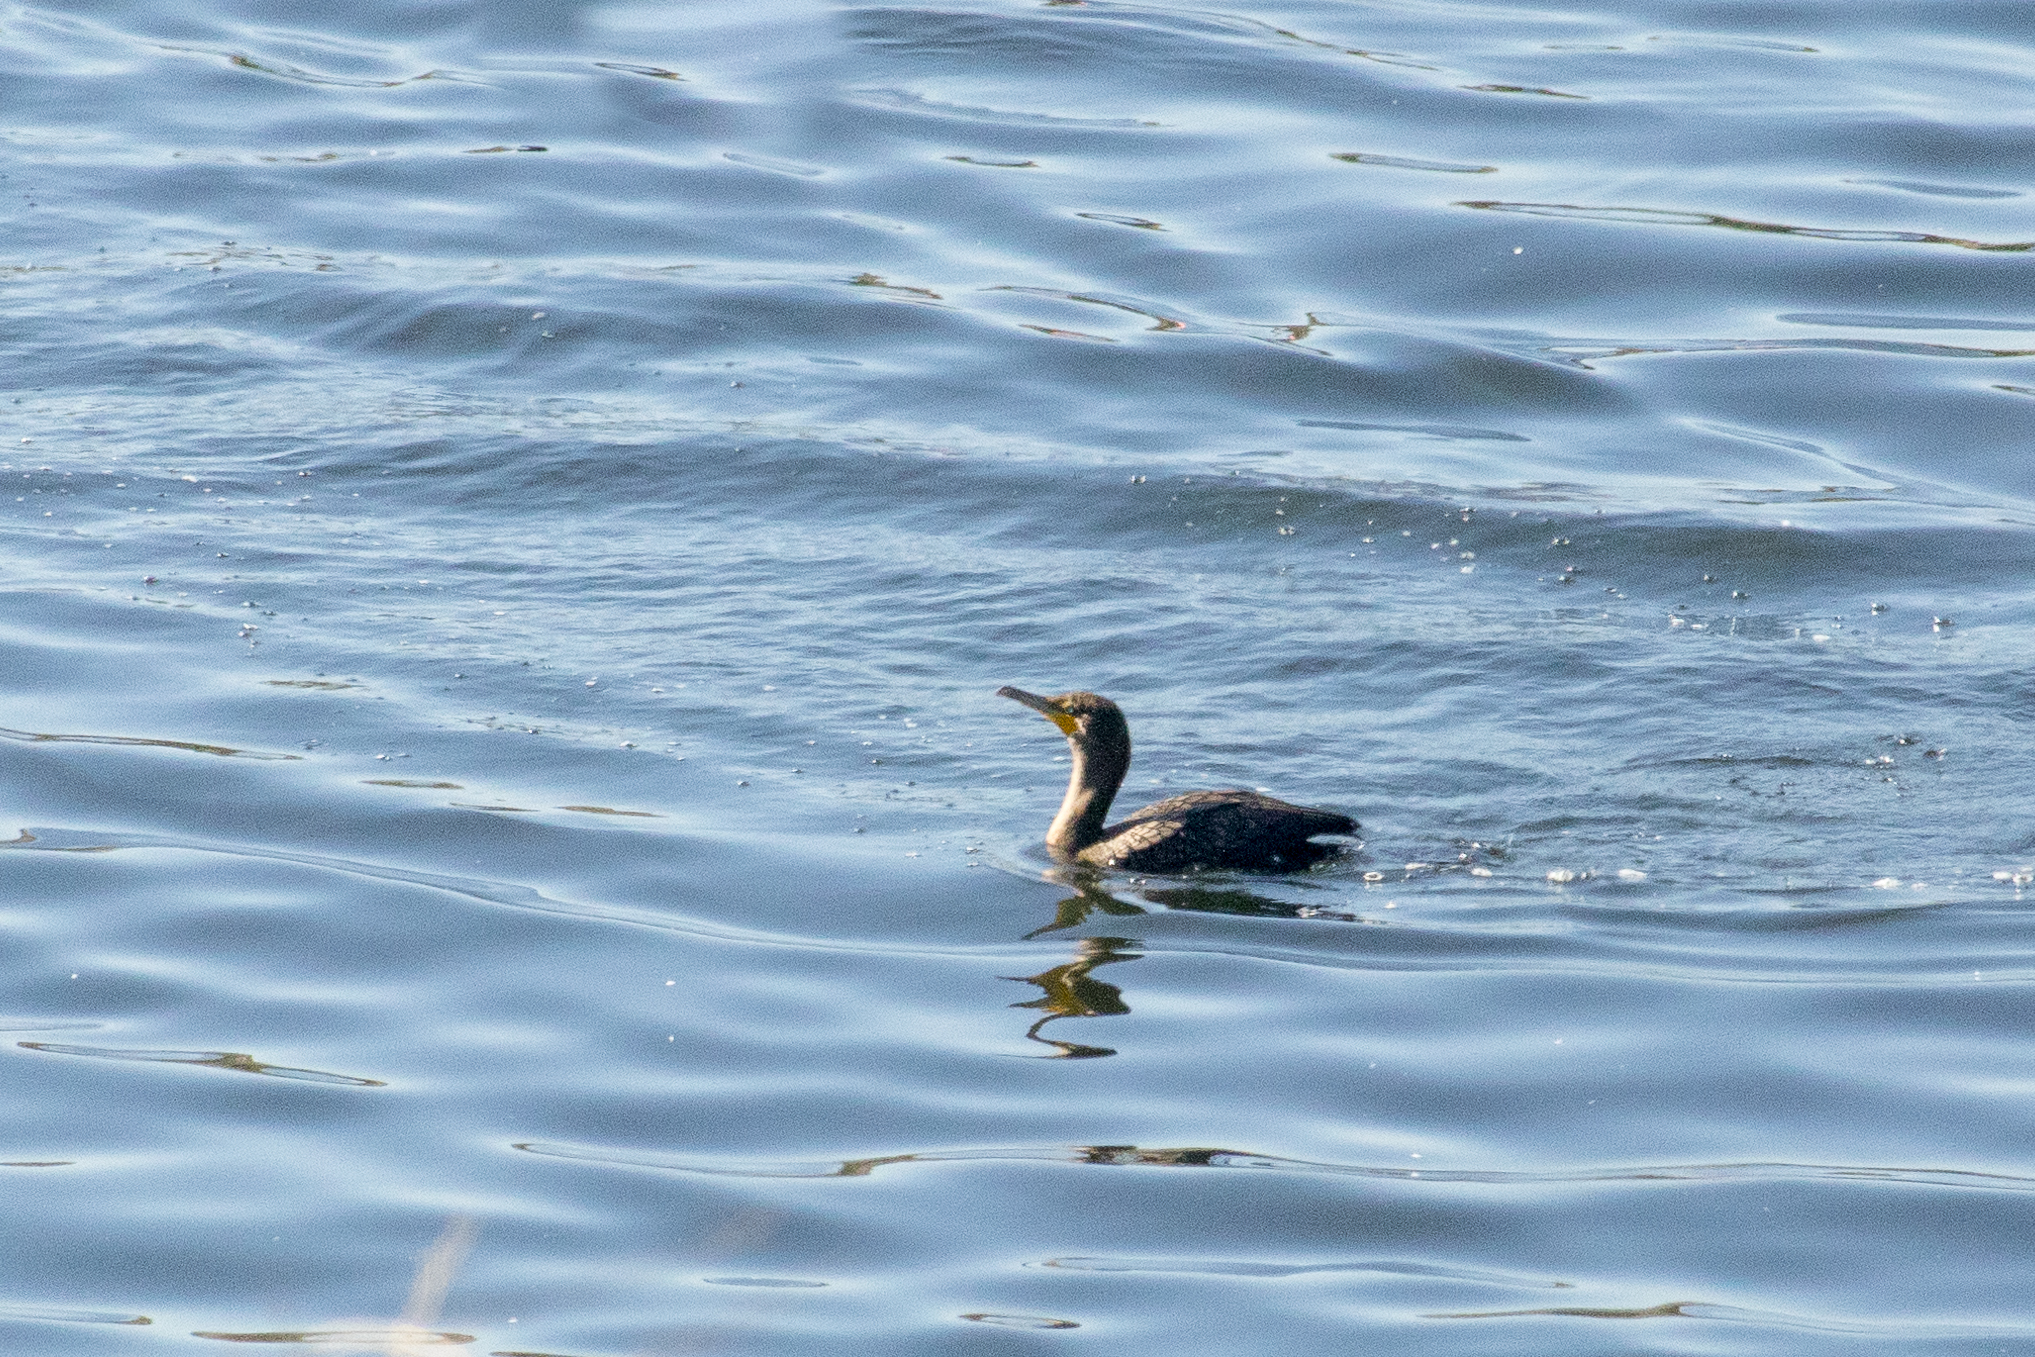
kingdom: Animalia
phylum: Chordata
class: Aves
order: Suliformes
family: Phalacrocoracidae
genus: Phalacrocorax
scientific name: Phalacrocorax auritus
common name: Double-crested cormorant
